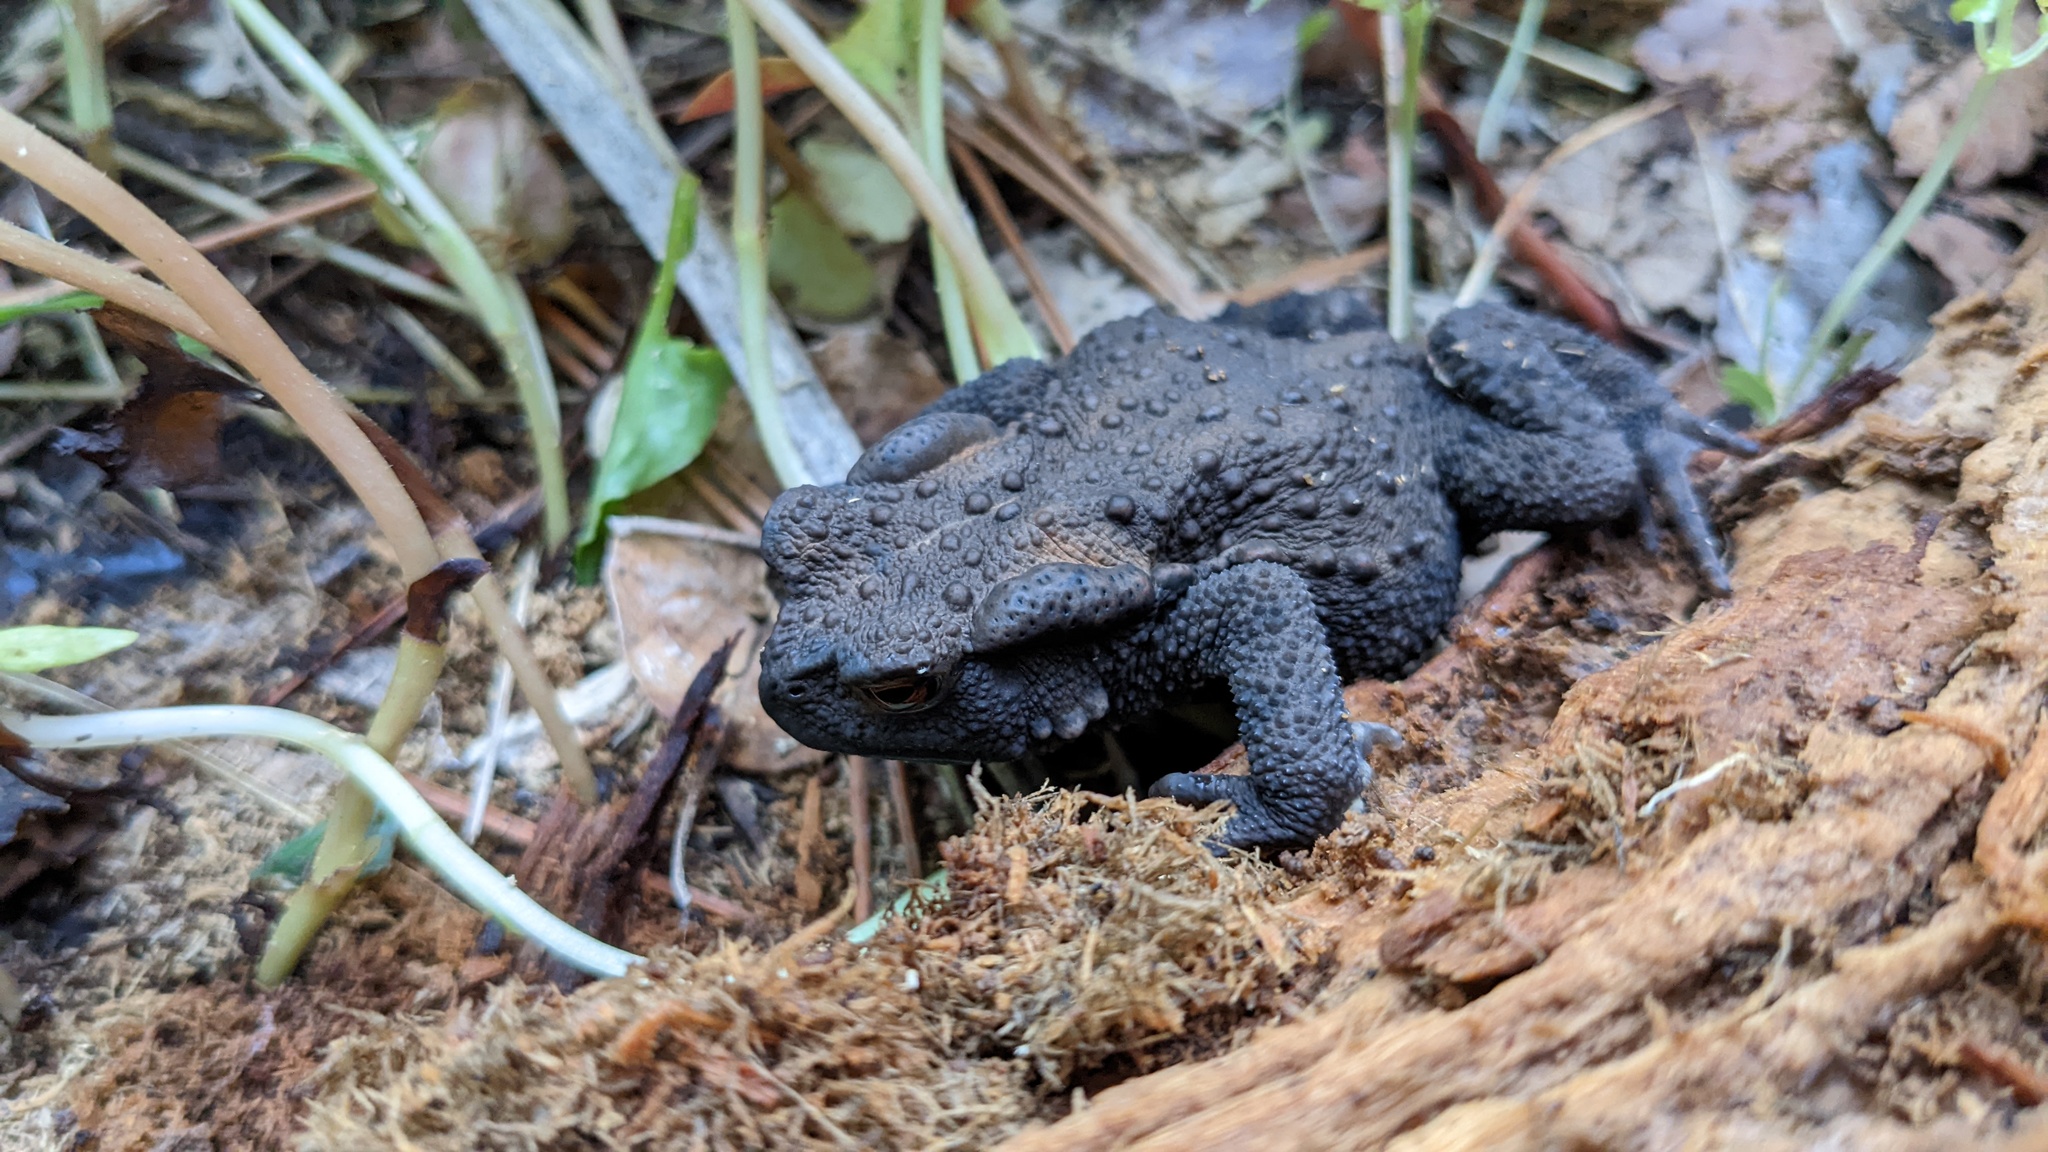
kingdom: Animalia
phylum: Chordata
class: Amphibia
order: Anura
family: Bufonidae
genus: Bufo
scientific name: Bufo japonicus
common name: Japanese common toad
